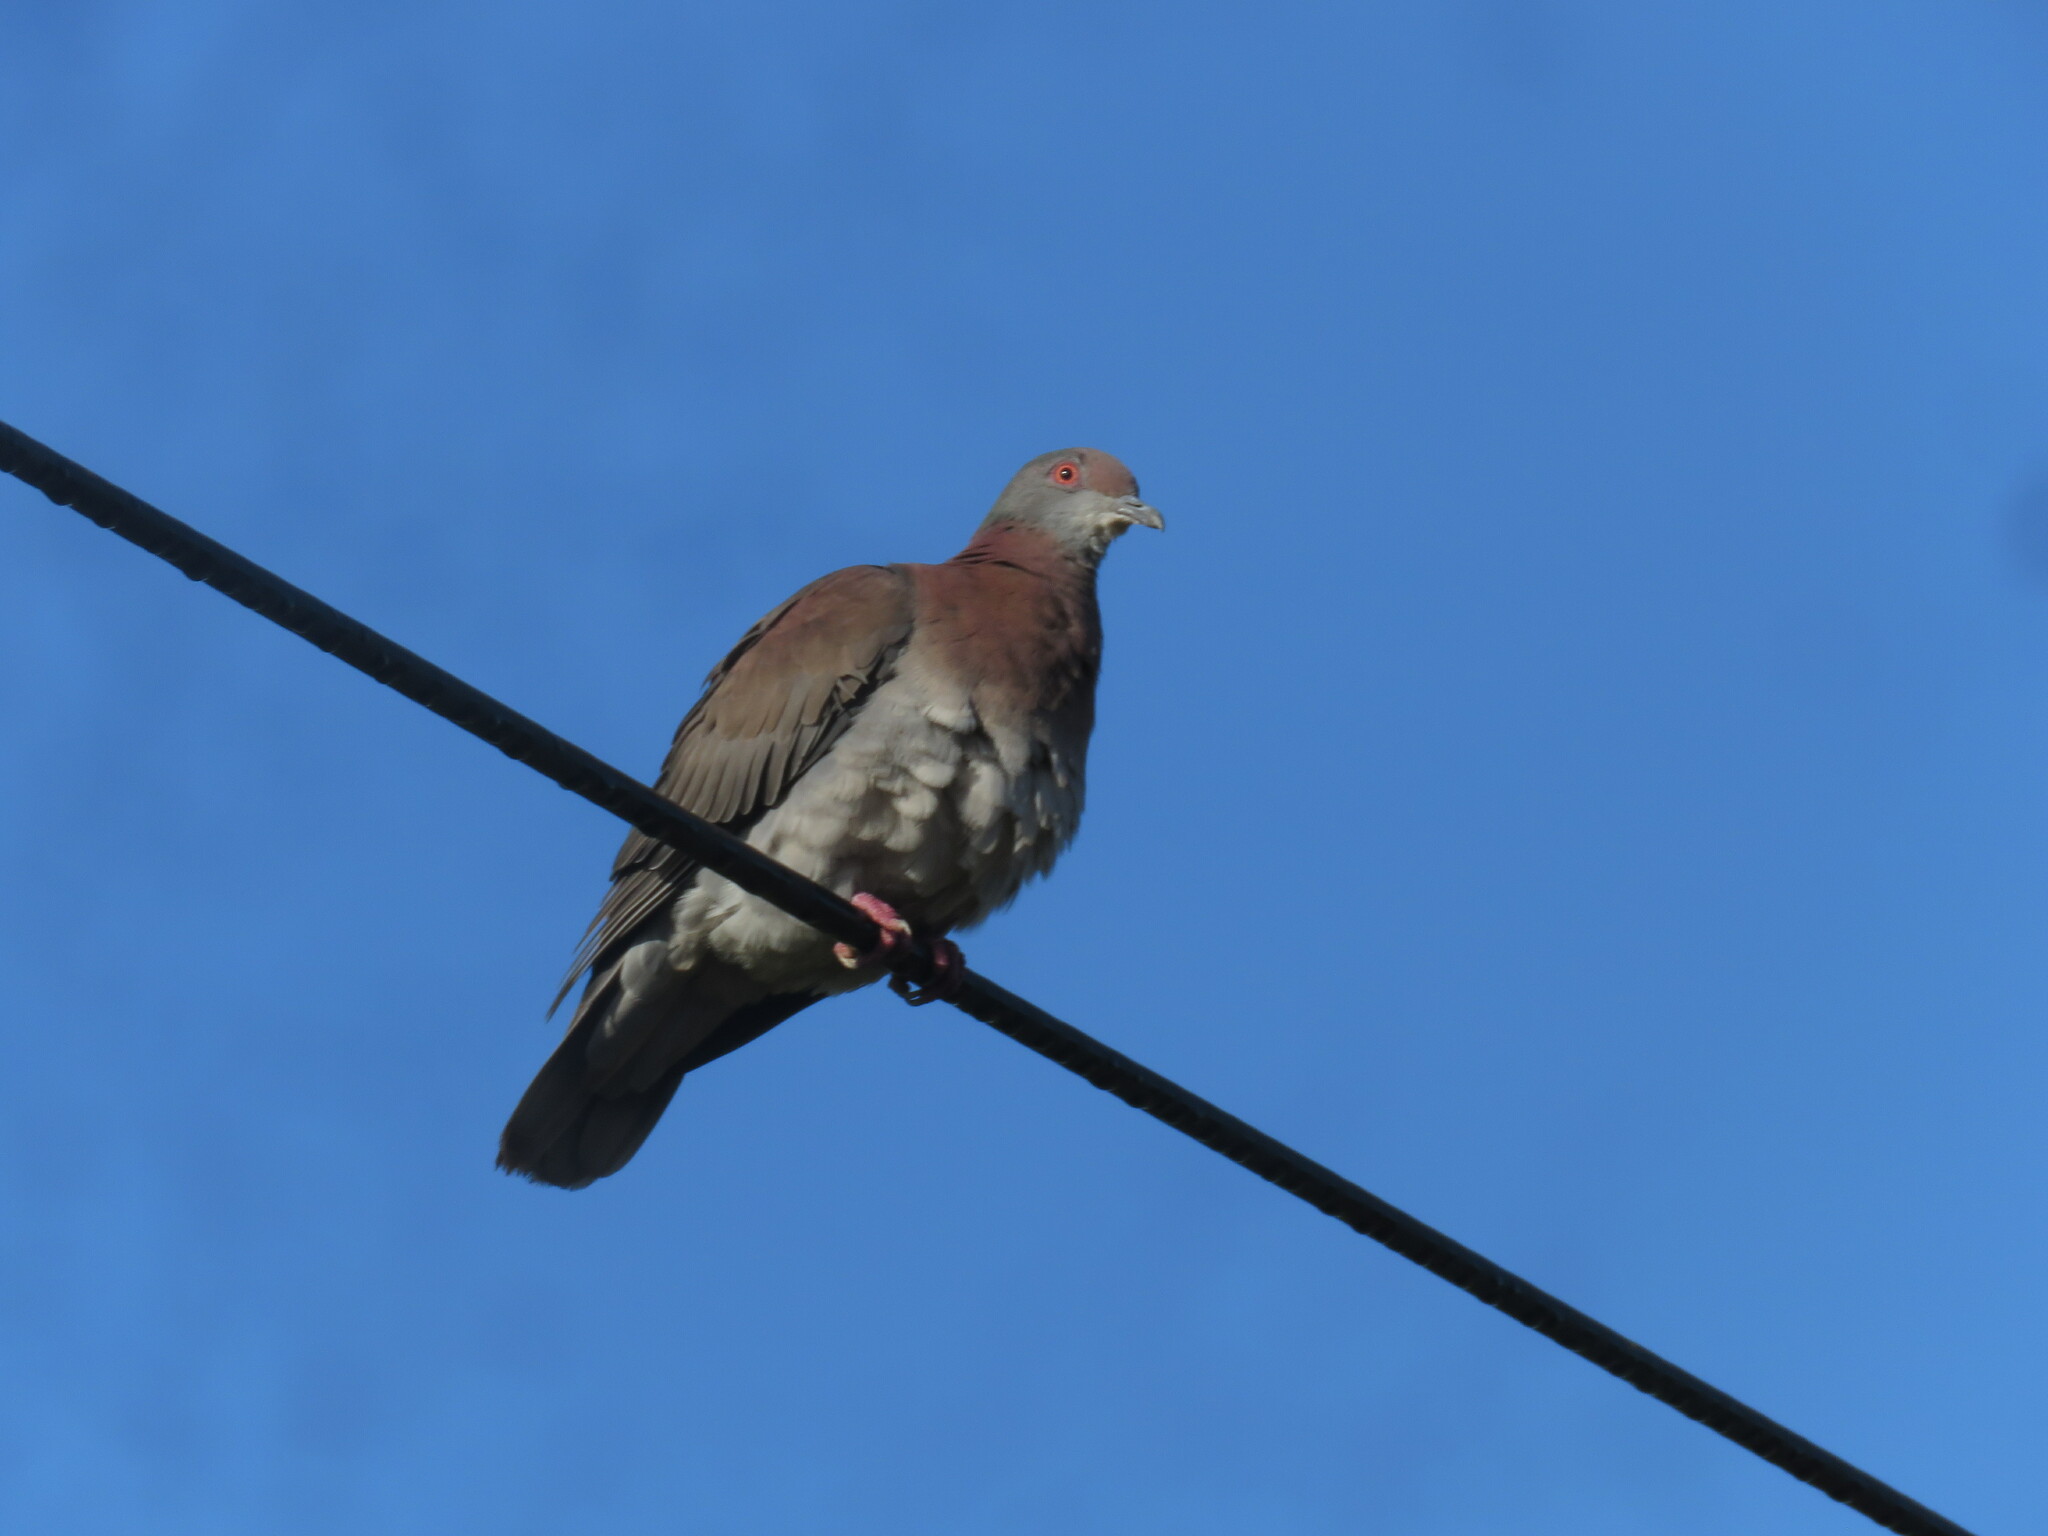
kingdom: Animalia
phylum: Chordata
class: Aves
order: Columbiformes
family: Columbidae
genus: Patagioenas
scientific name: Patagioenas cayennensis
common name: Pale-vented pigeon
